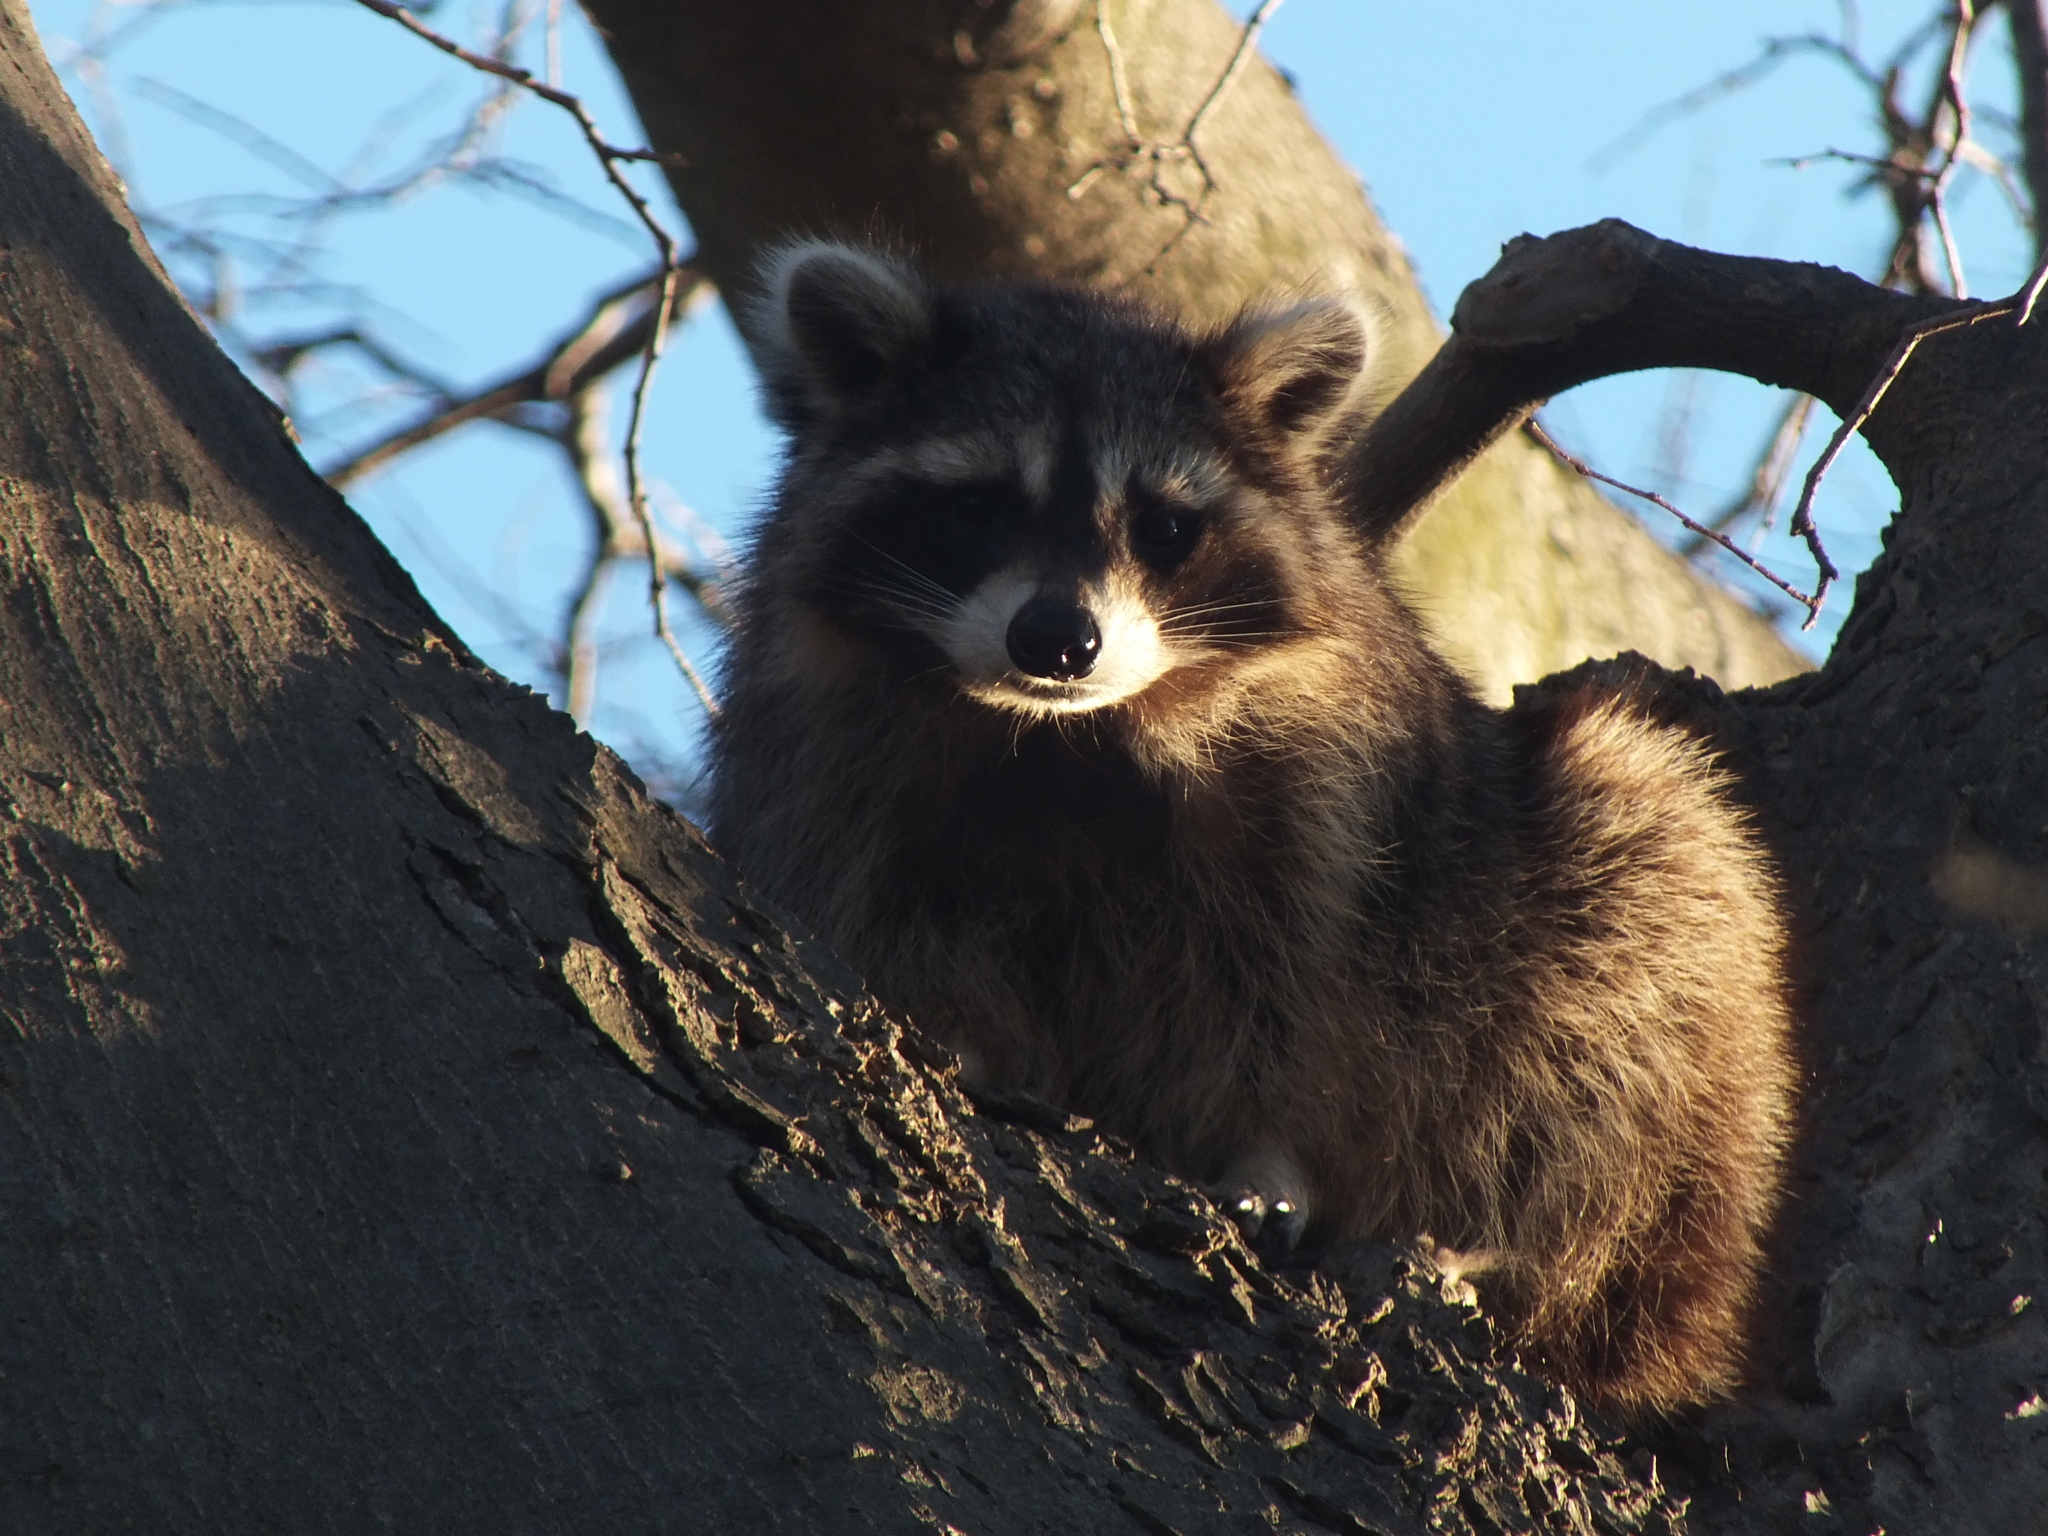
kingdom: Animalia
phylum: Chordata
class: Mammalia
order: Carnivora
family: Procyonidae
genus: Procyon
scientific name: Procyon lotor
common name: Raccoon
